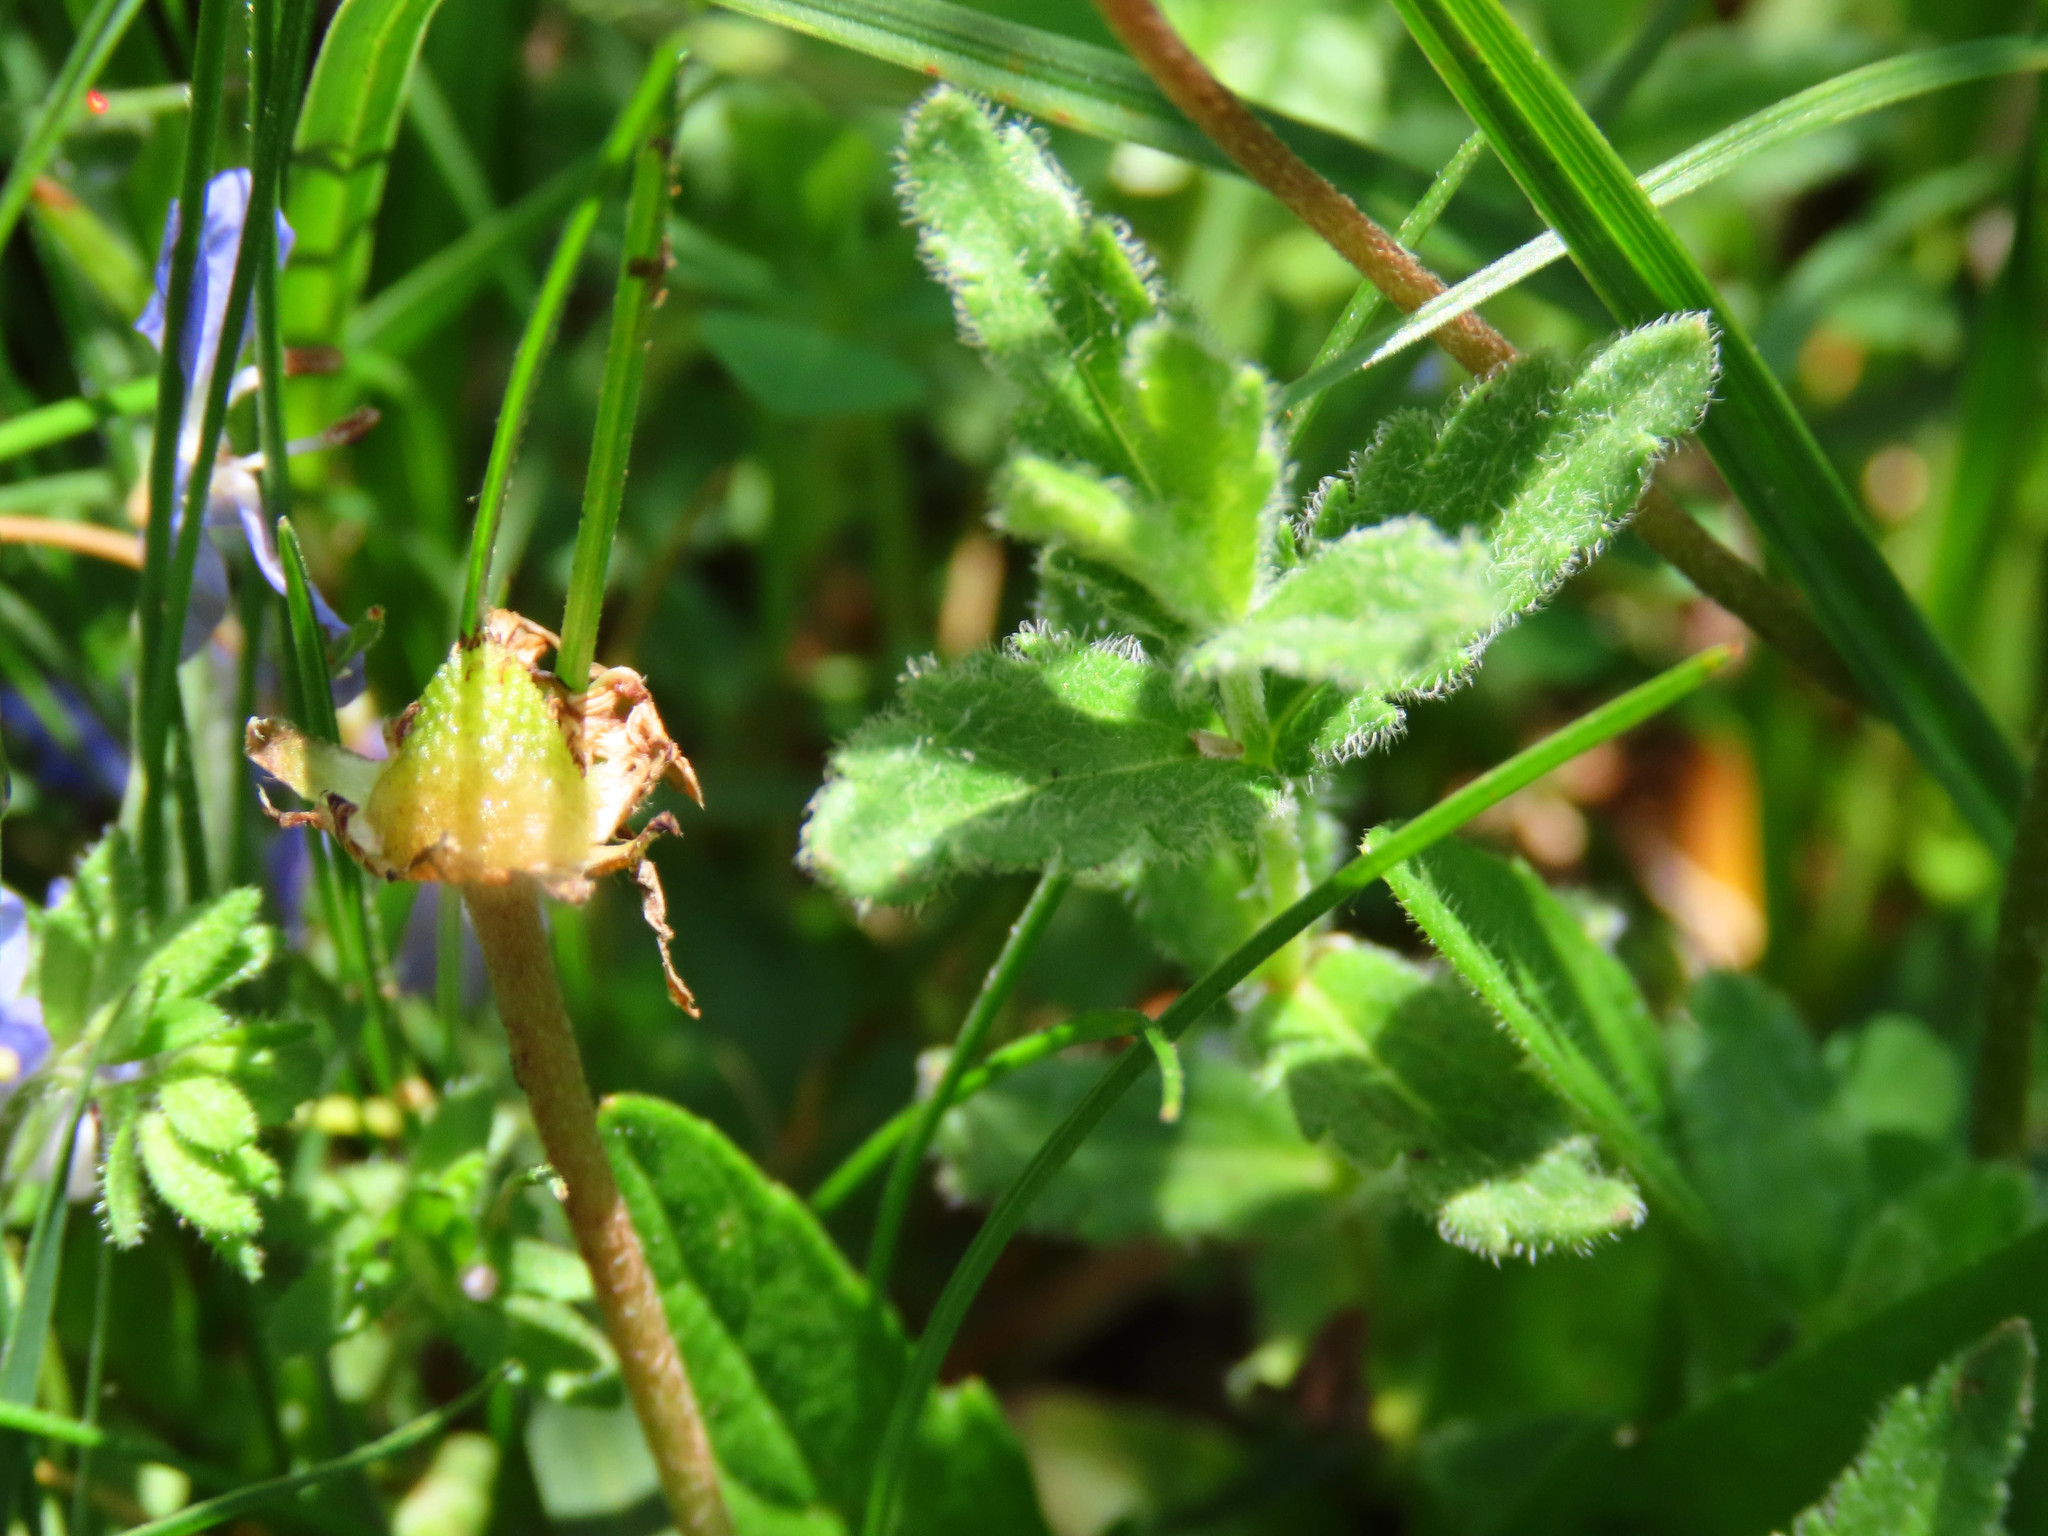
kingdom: Plantae
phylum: Tracheophyta
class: Magnoliopsida
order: Lamiales
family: Plantaginaceae
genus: Veronica
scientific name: Veronica orsiniana
